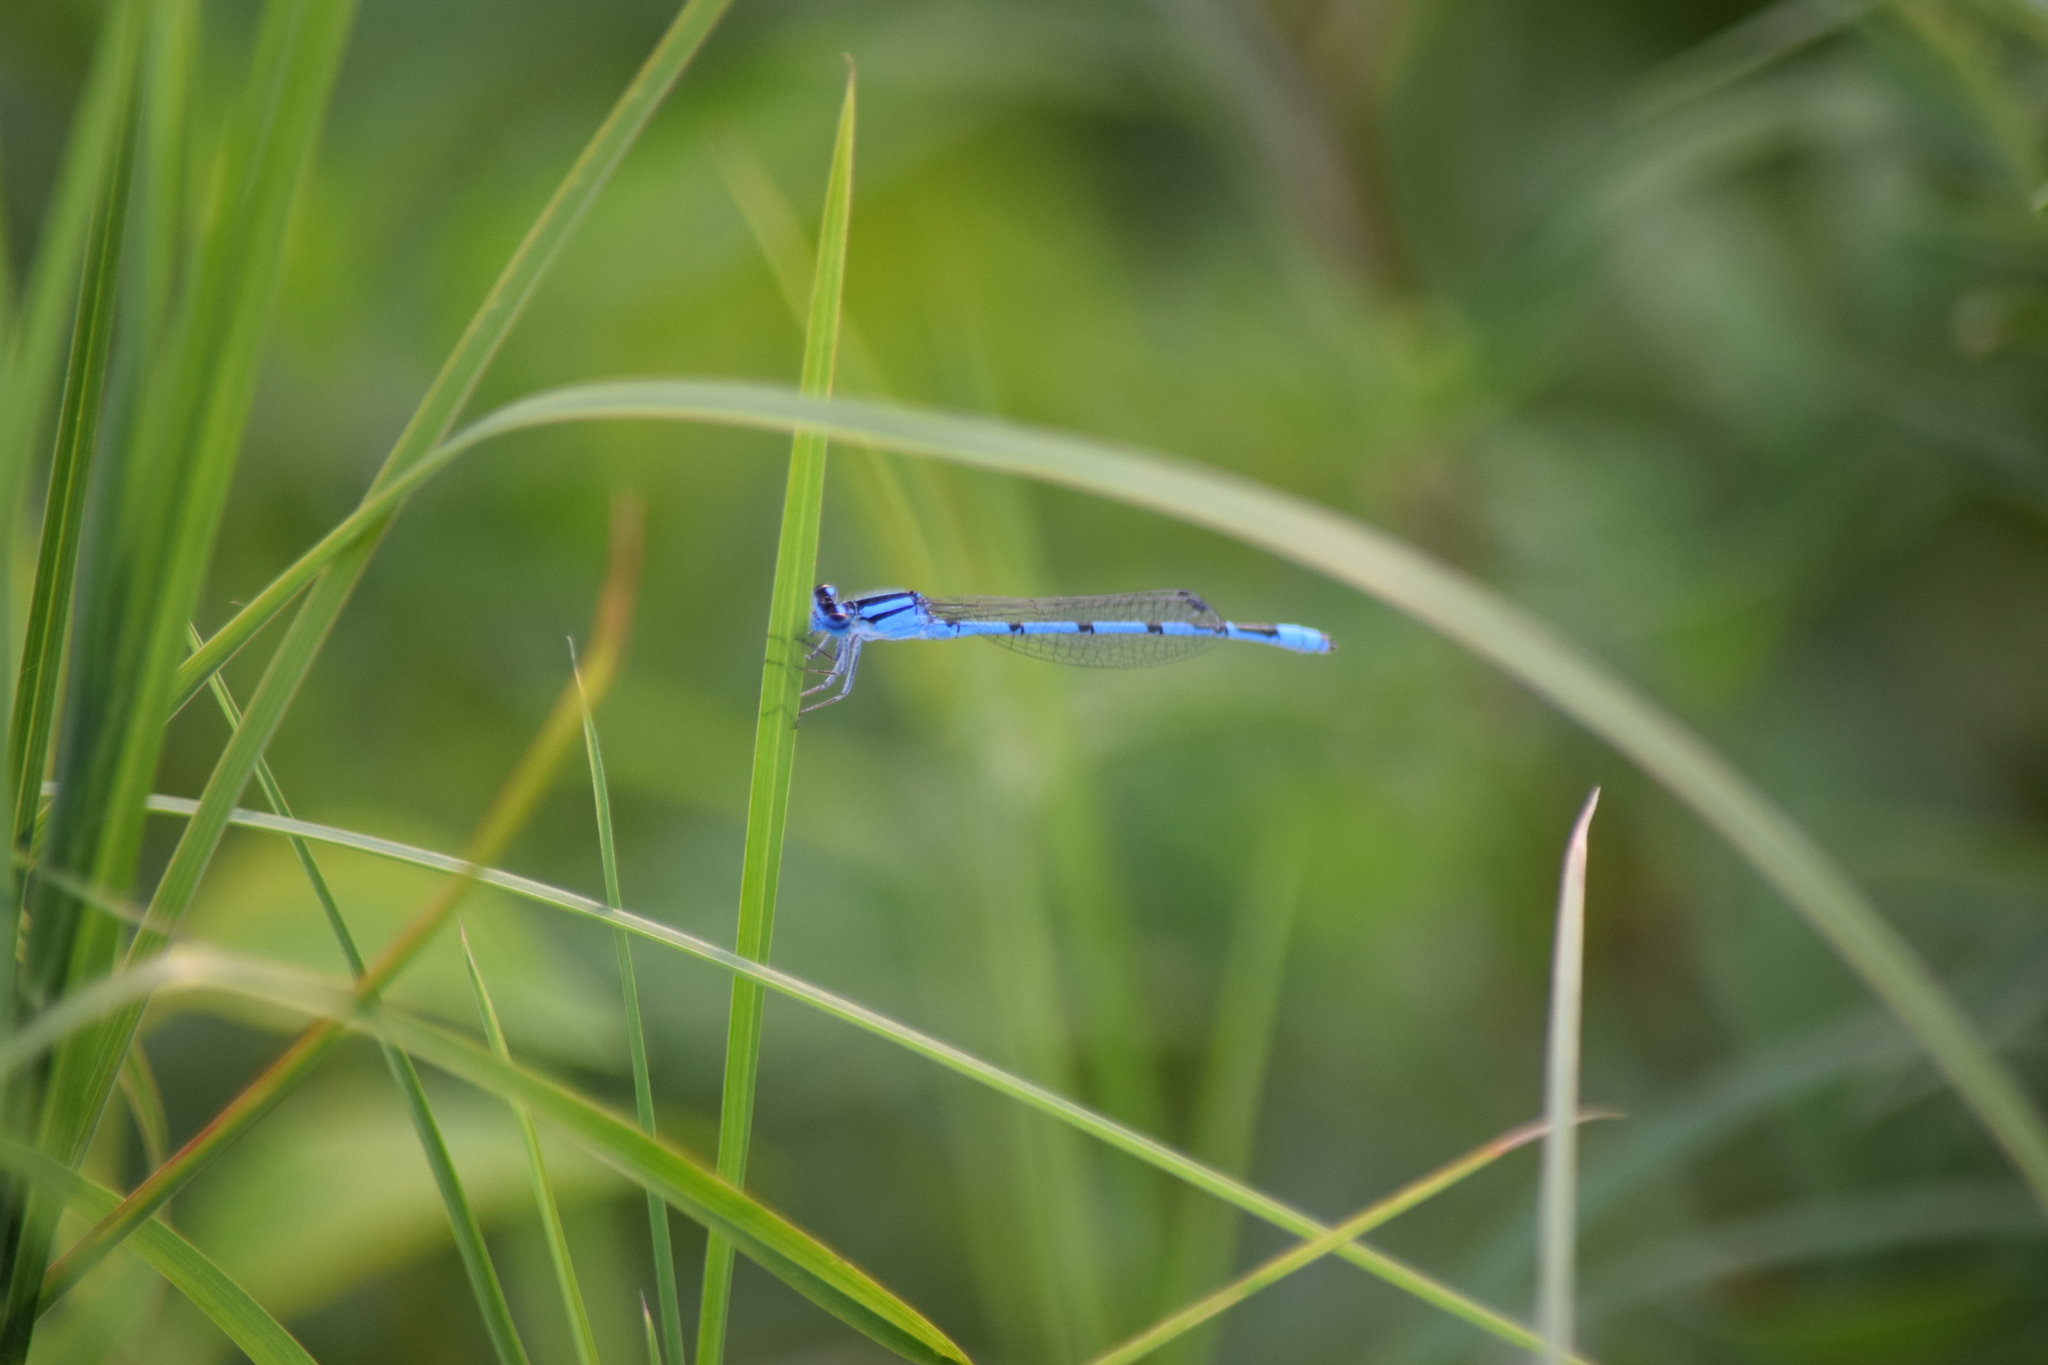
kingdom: Animalia
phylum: Arthropoda
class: Insecta
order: Odonata
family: Coenagrionidae
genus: Enallagma
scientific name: Enallagma civile
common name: Damselfly
